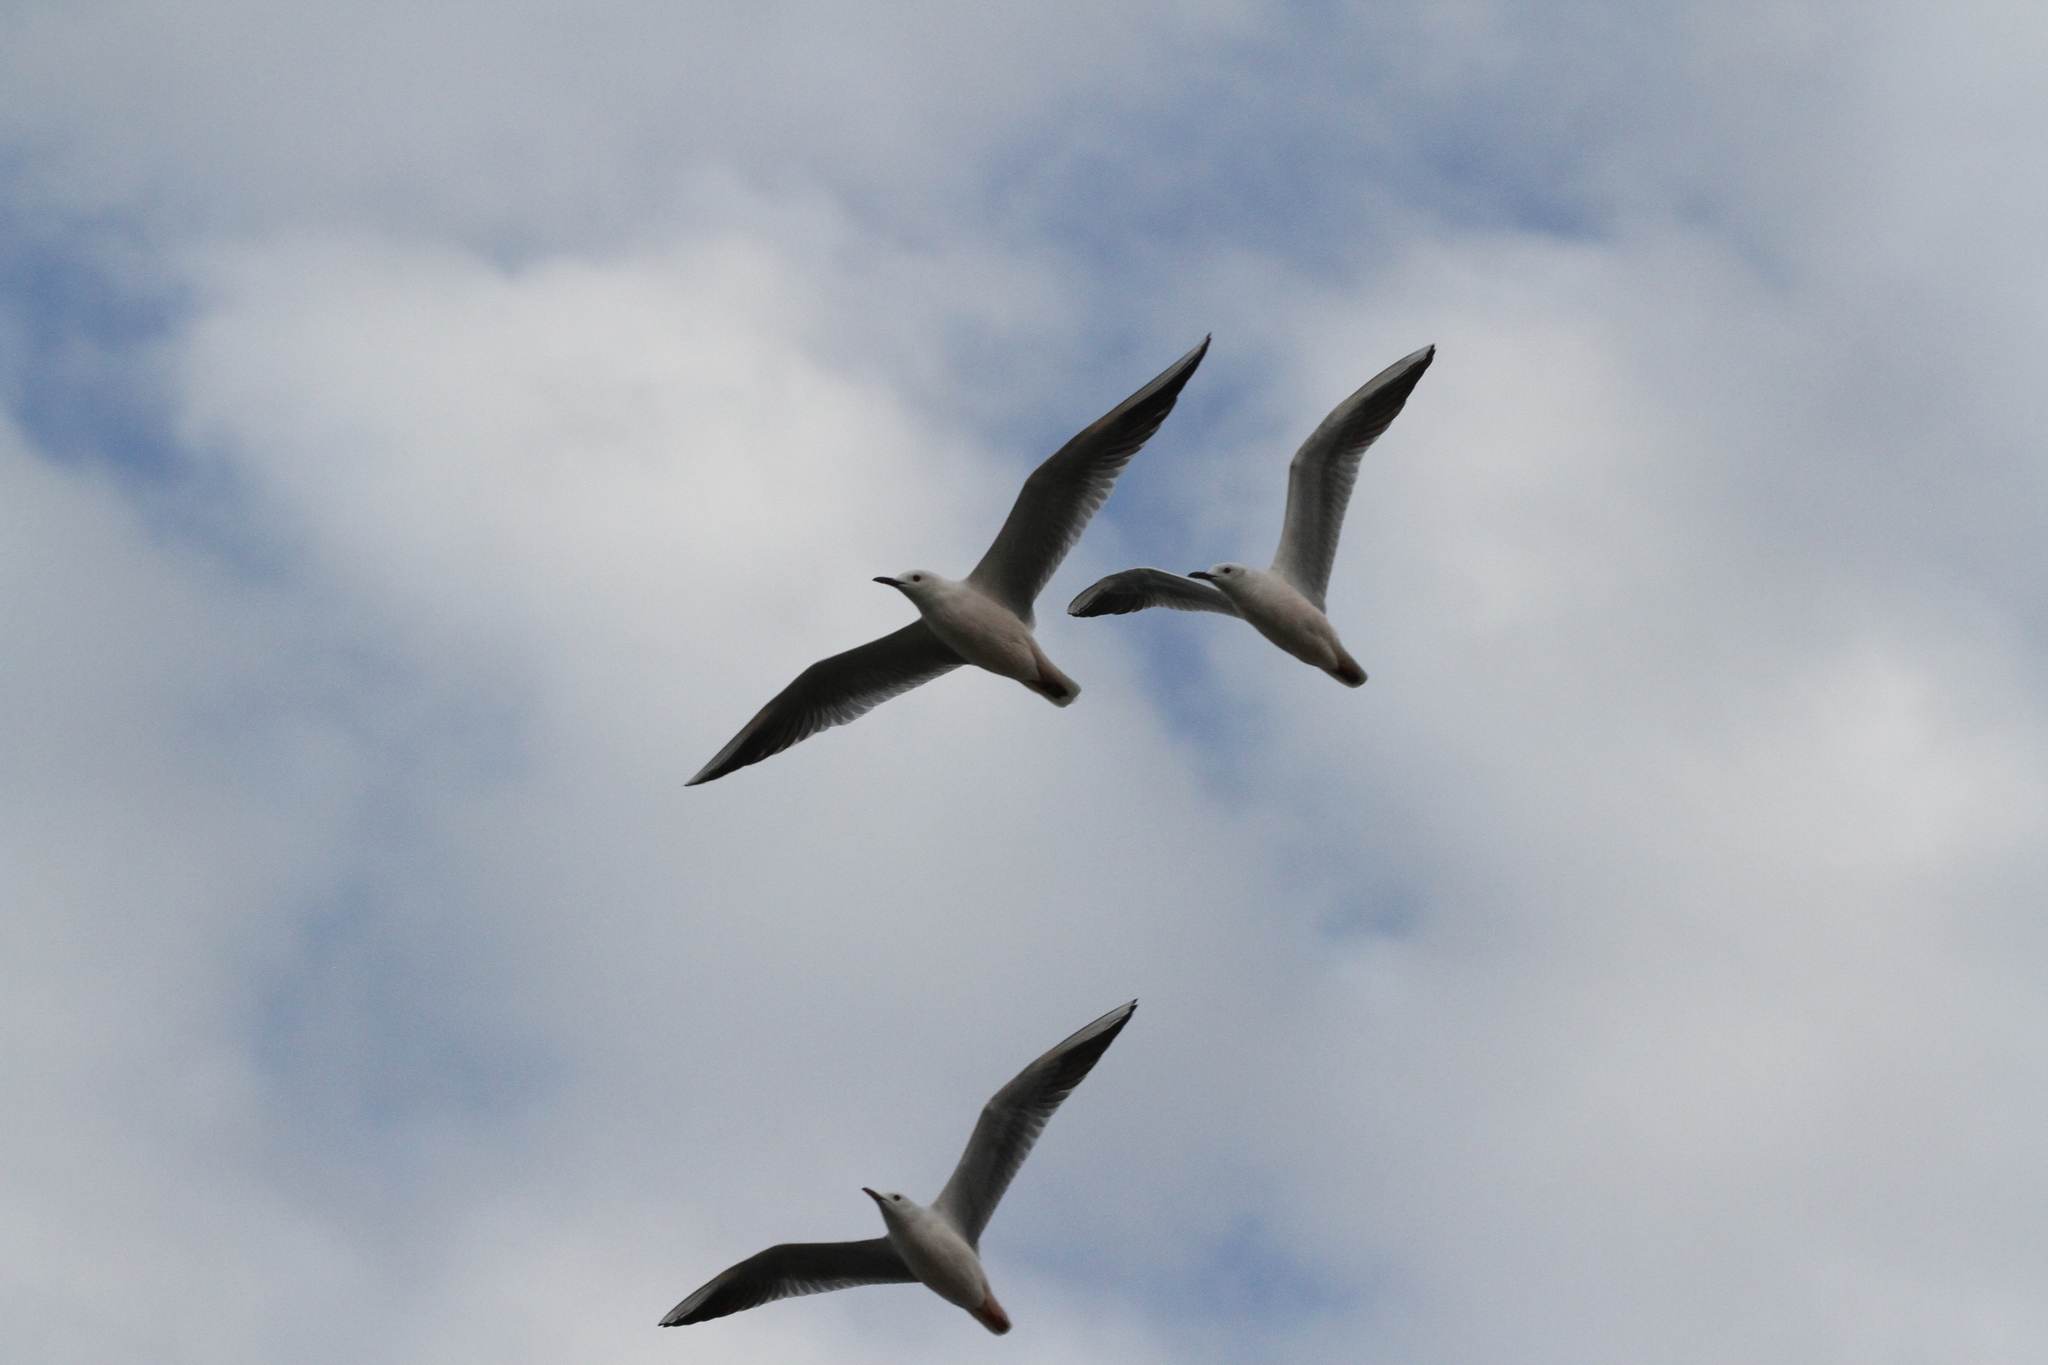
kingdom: Animalia
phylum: Chordata
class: Aves
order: Charadriiformes
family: Laridae
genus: Chroicocephalus
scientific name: Chroicocephalus genei
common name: Slender-billed gull
